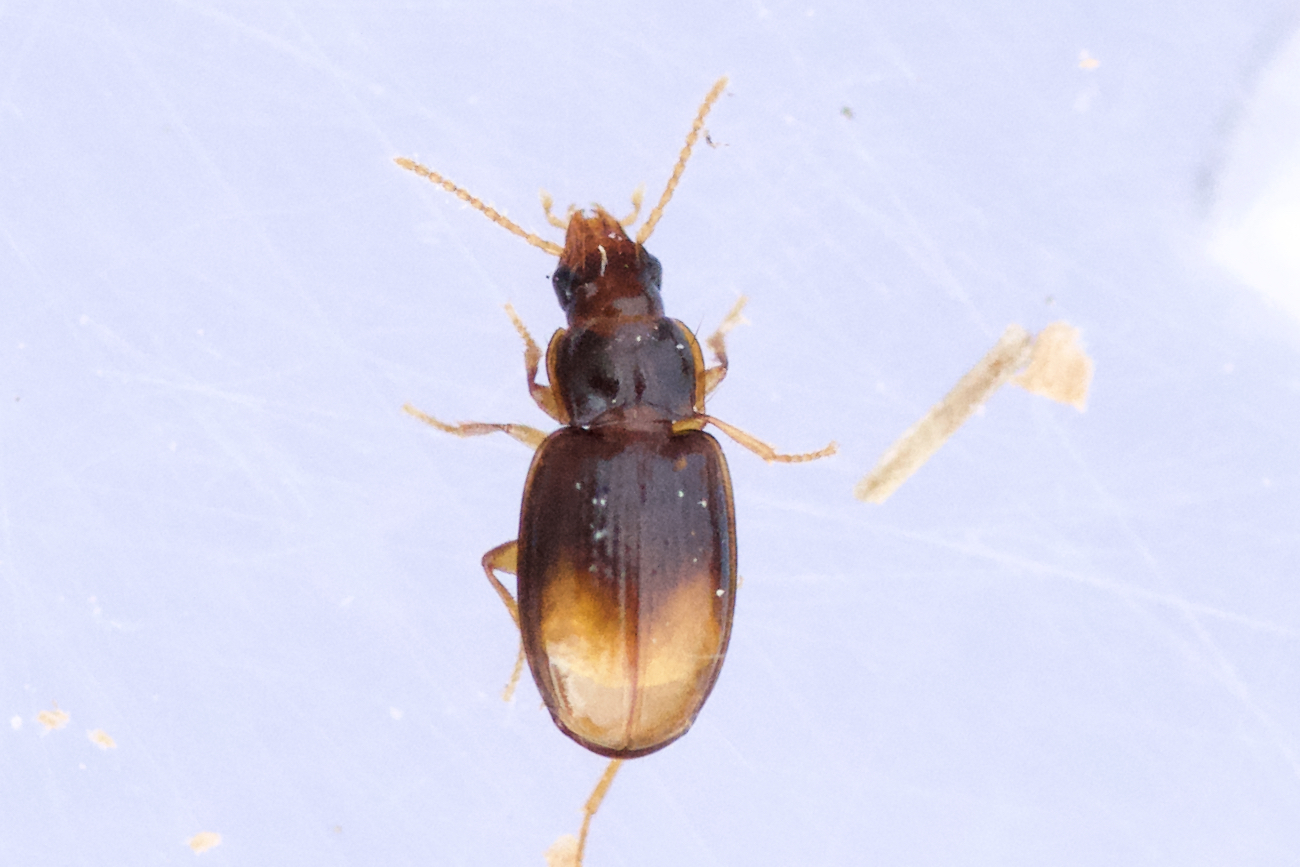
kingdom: Animalia
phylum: Arthropoda
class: Insecta
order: Coleoptera
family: Carabidae
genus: Mioptachys
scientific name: Mioptachys flavicauda
